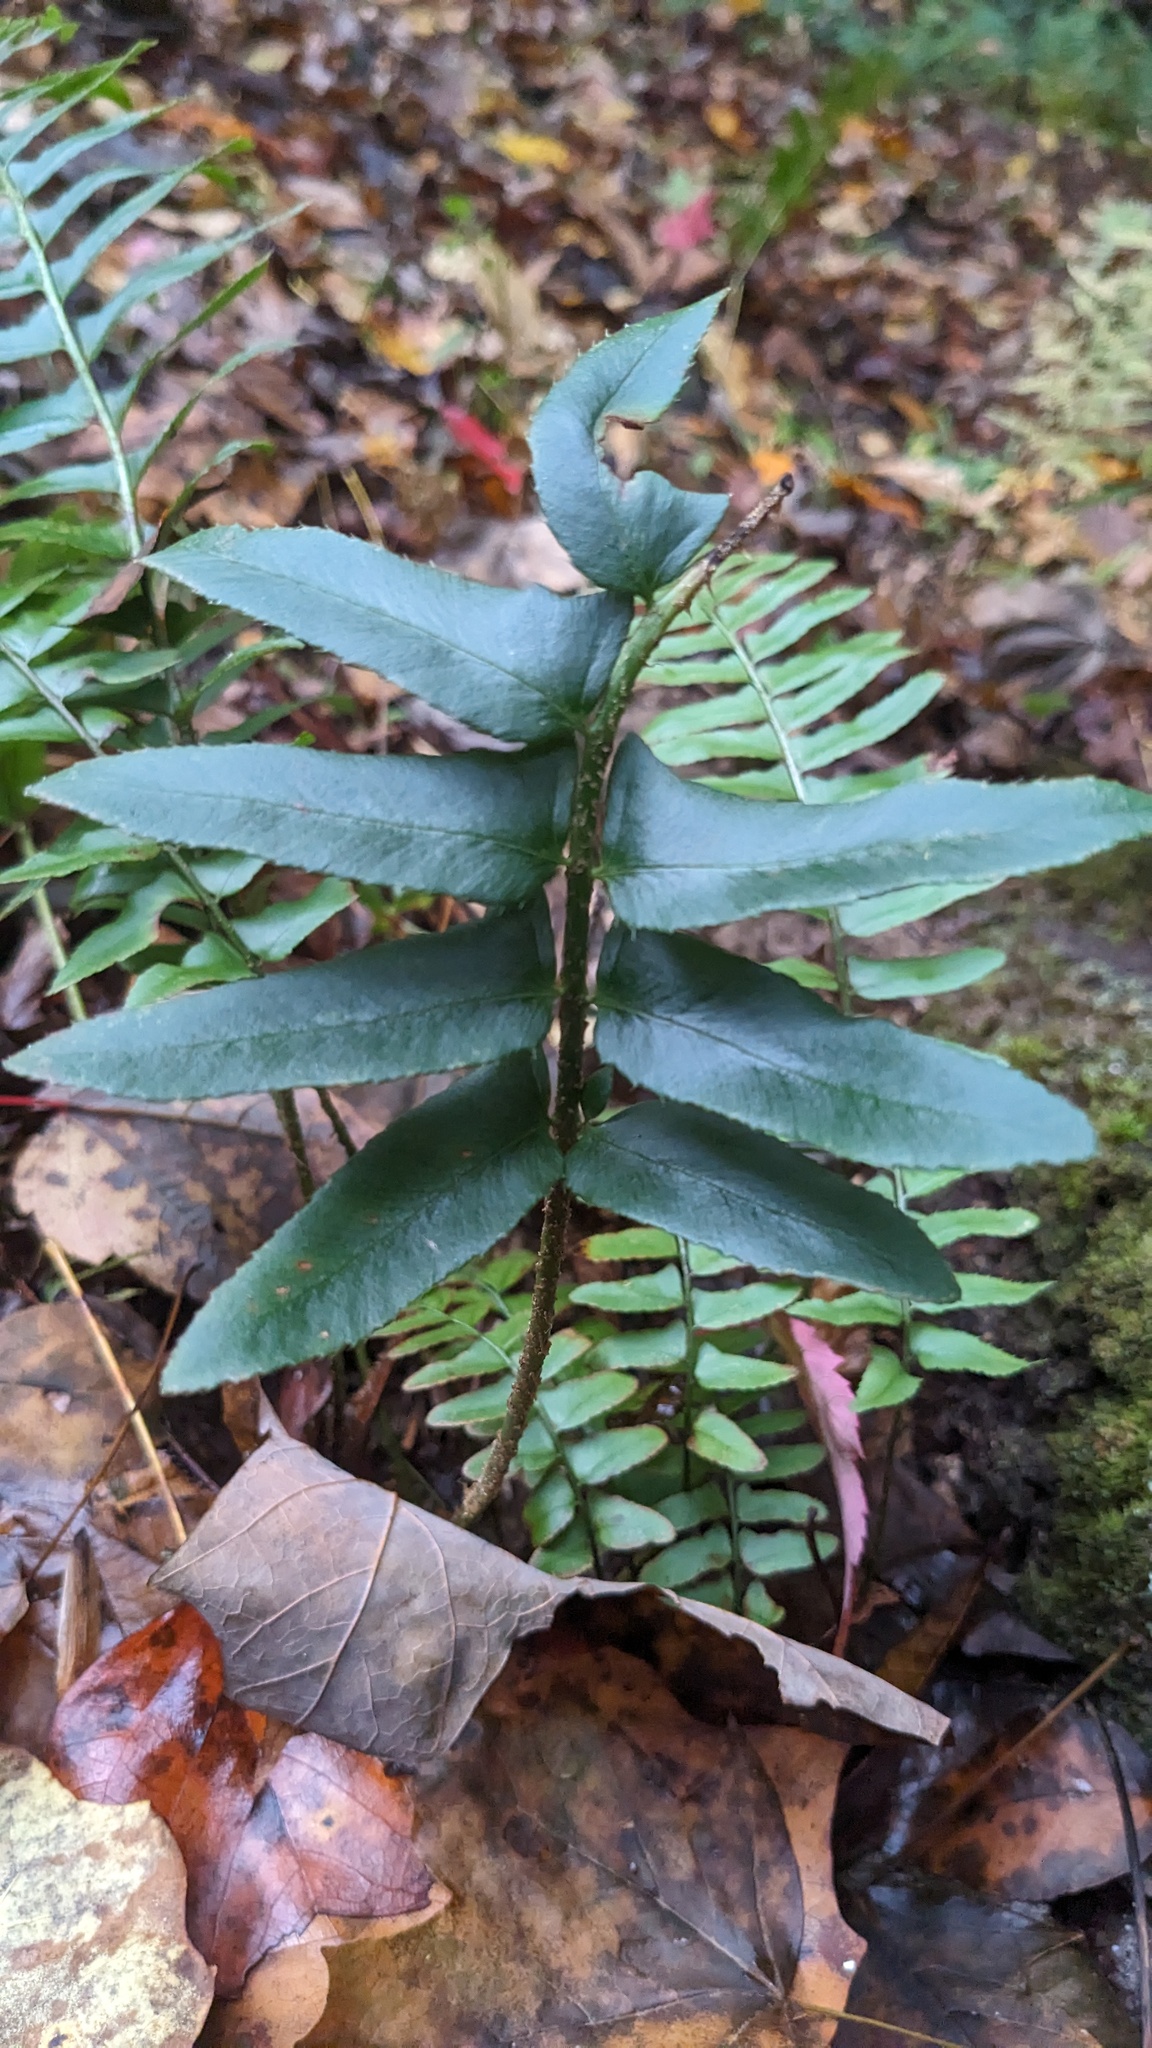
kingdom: Plantae
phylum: Tracheophyta
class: Polypodiopsida
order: Polypodiales
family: Dryopteridaceae
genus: Polystichum
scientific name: Polystichum acrostichoides
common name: Christmas fern
